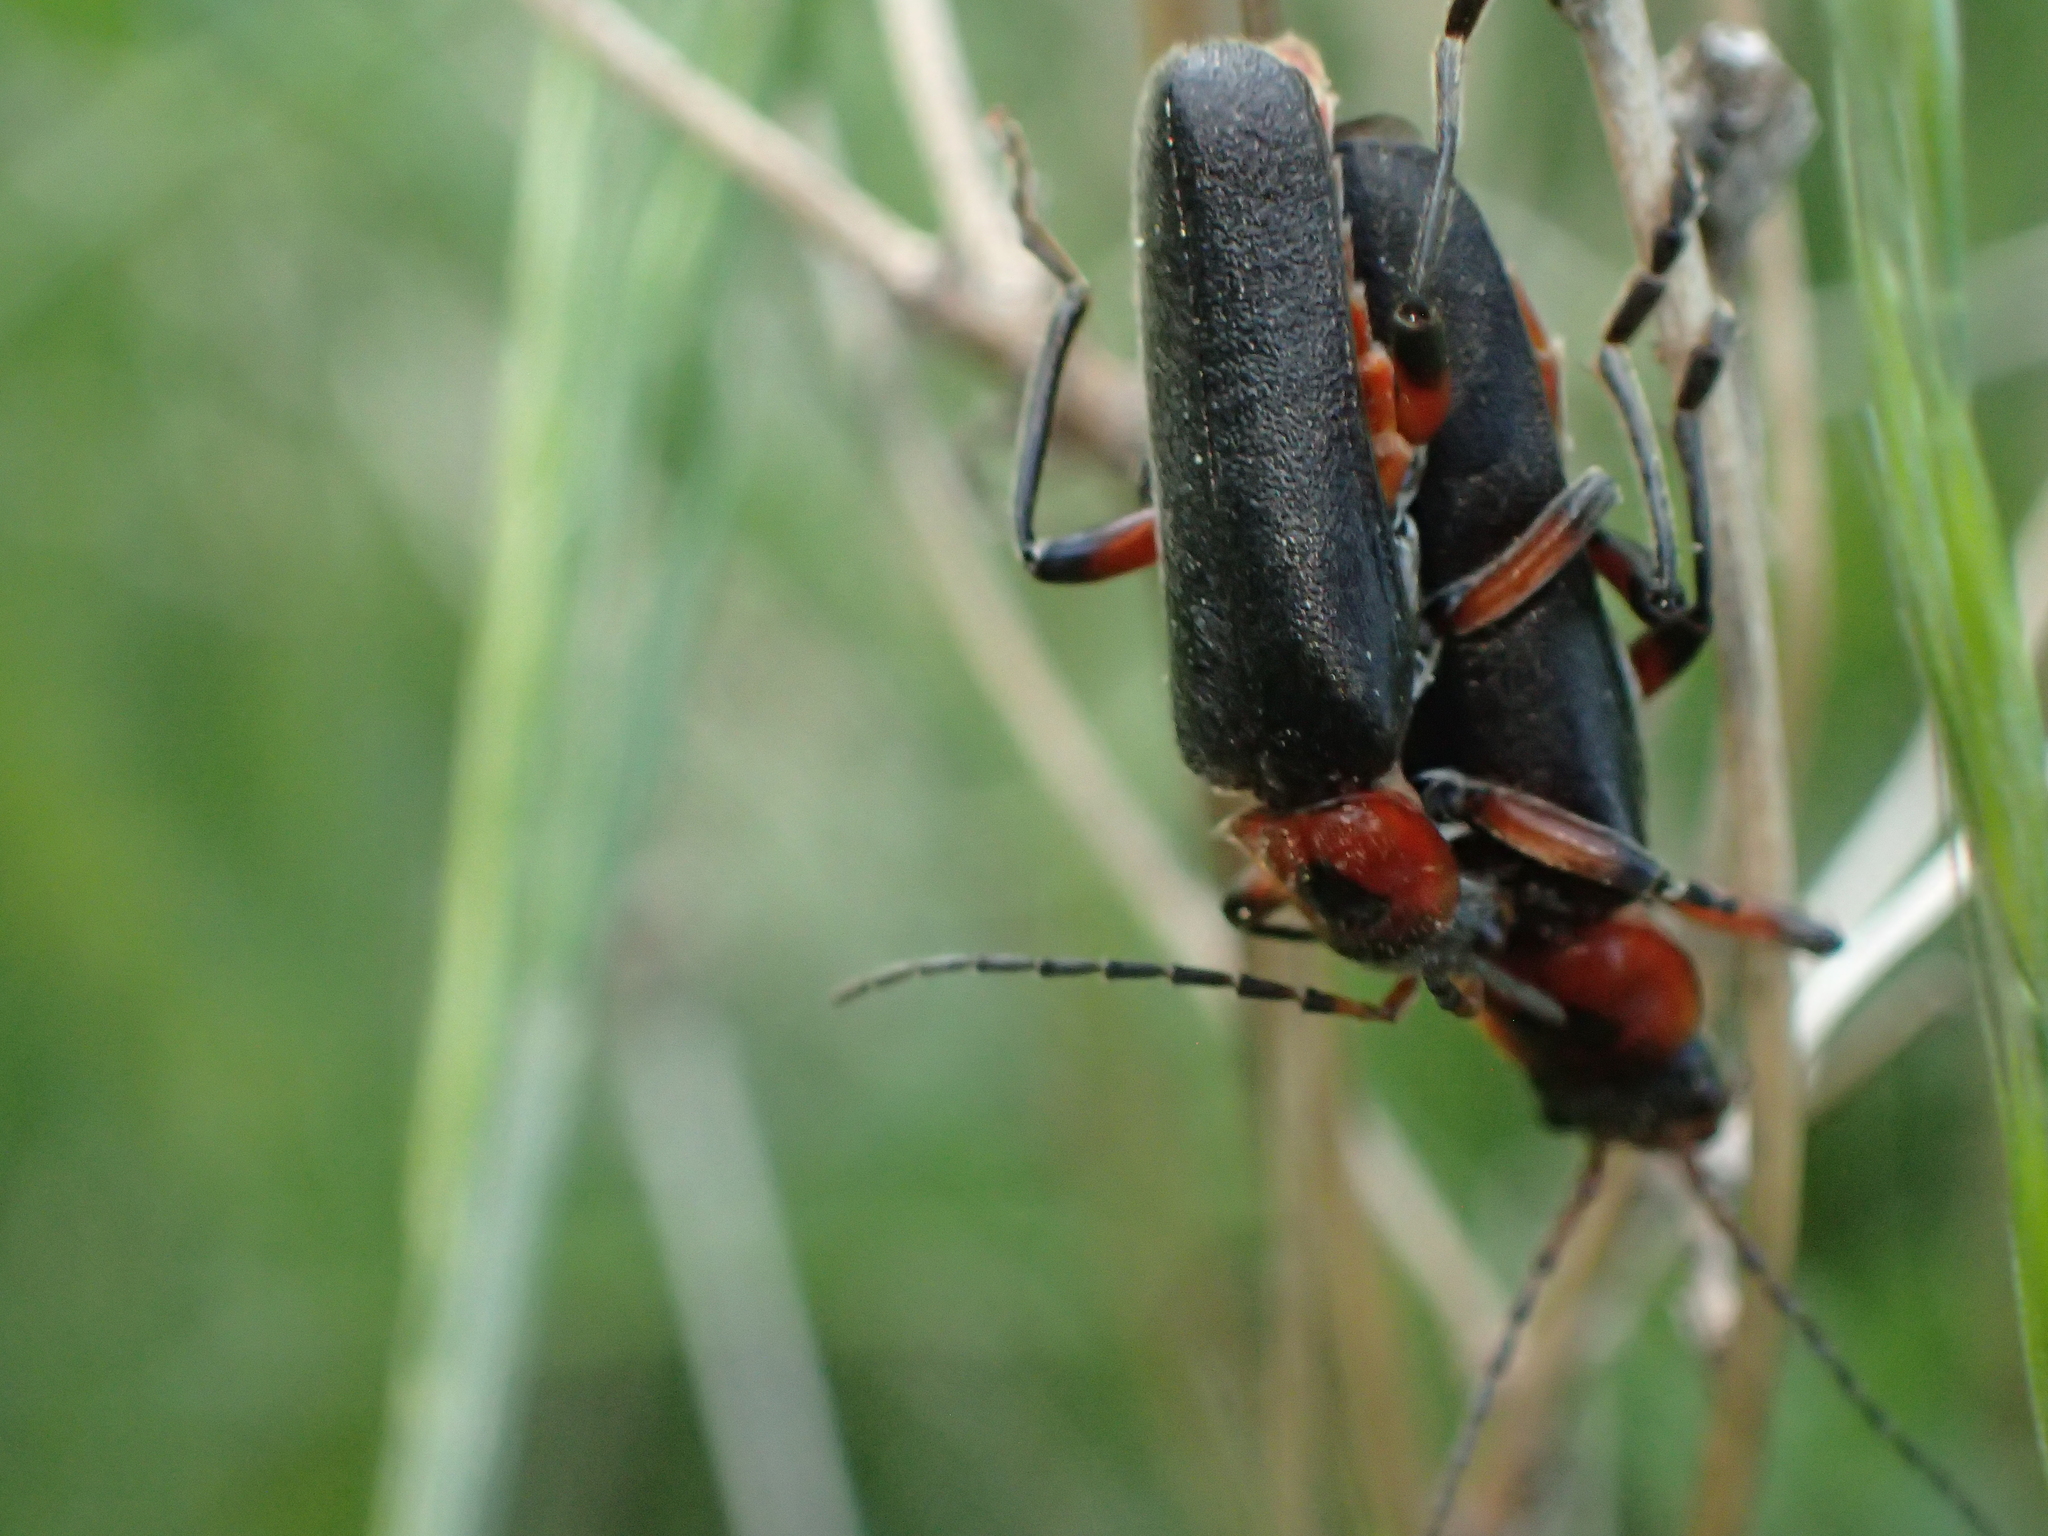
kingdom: Animalia
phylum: Arthropoda
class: Insecta
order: Coleoptera
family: Cantharidae
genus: Cantharis
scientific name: Cantharis rustica
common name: Soldier beetle
